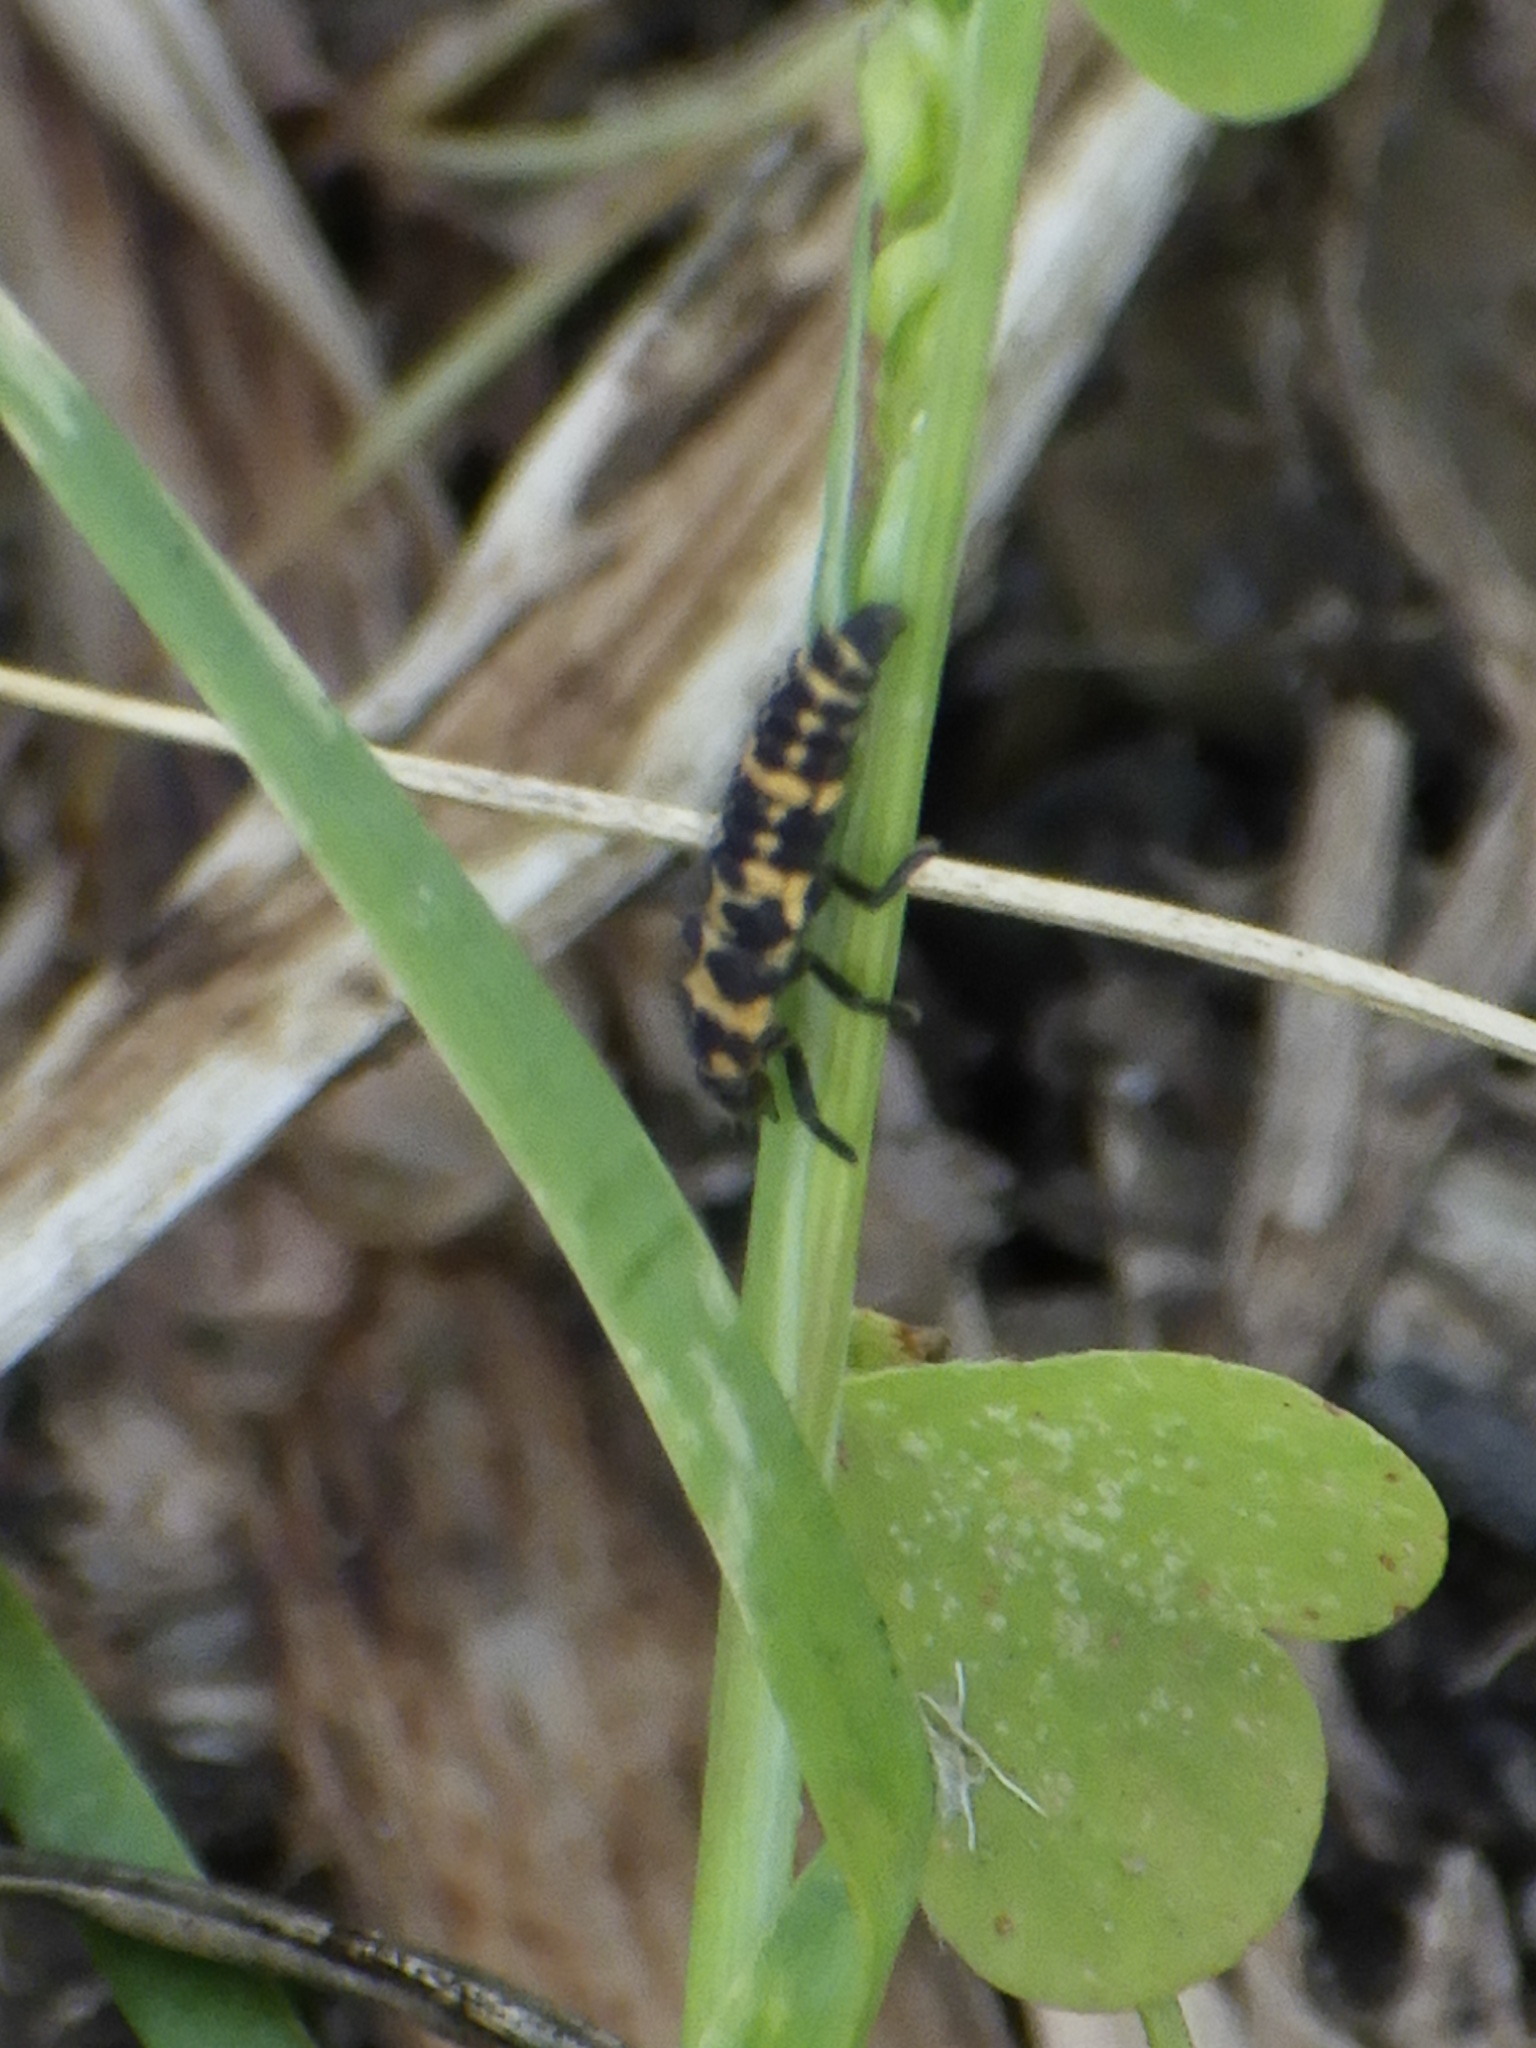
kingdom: Animalia
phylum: Arthropoda
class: Insecta
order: Coleoptera
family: Coccinellidae
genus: Coleomegilla
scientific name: Coleomegilla maculata
